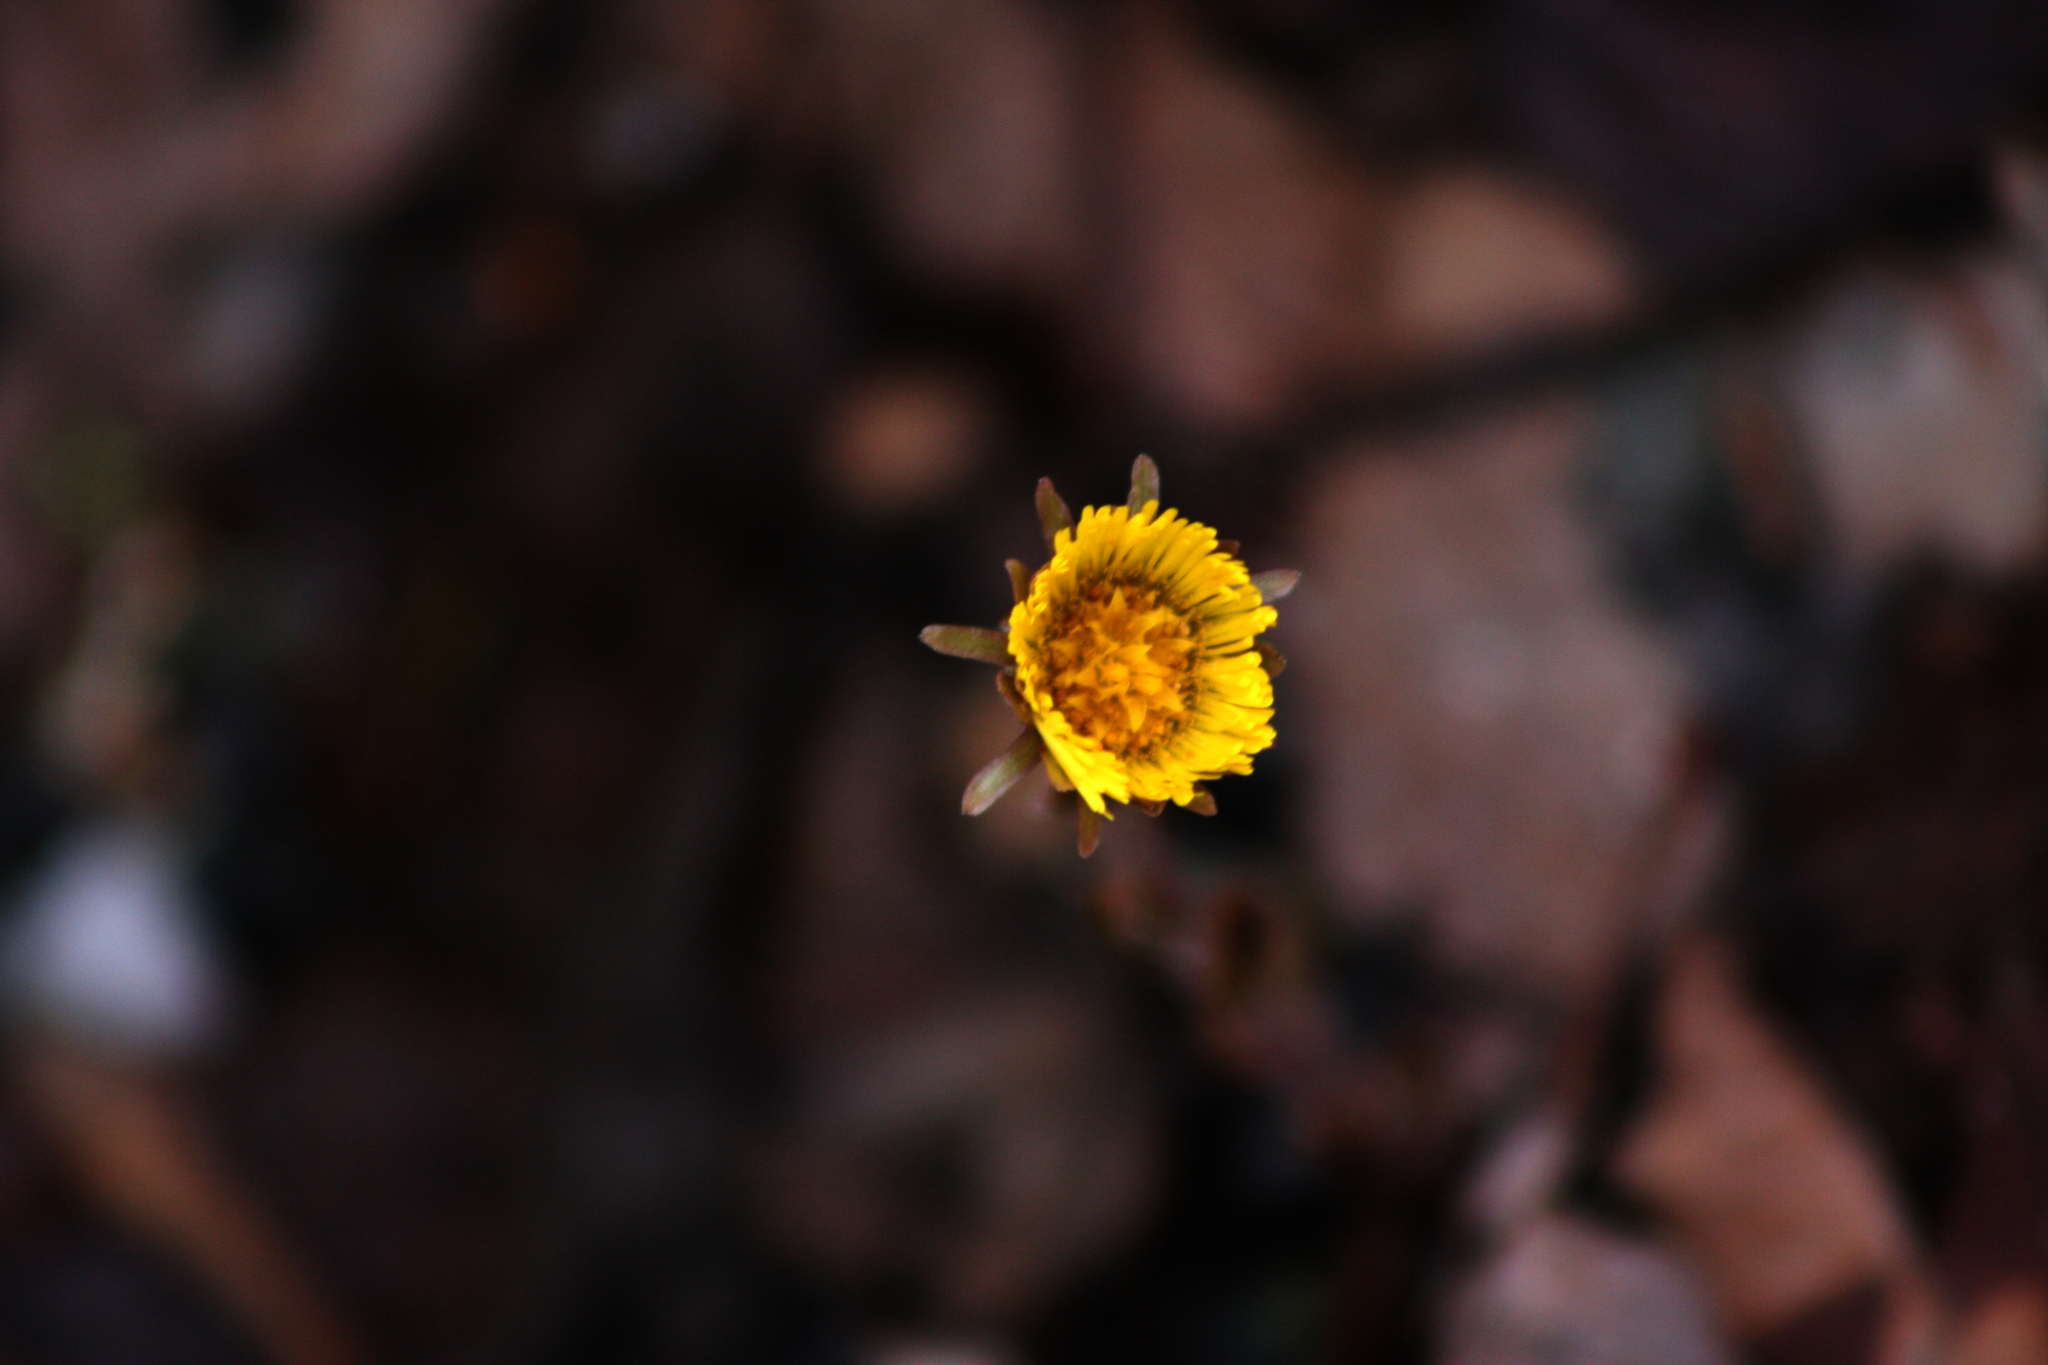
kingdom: Plantae
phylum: Tracheophyta
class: Magnoliopsida
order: Asterales
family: Asteraceae
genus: Tussilago
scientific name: Tussilago farfara
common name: Coltsfoot
